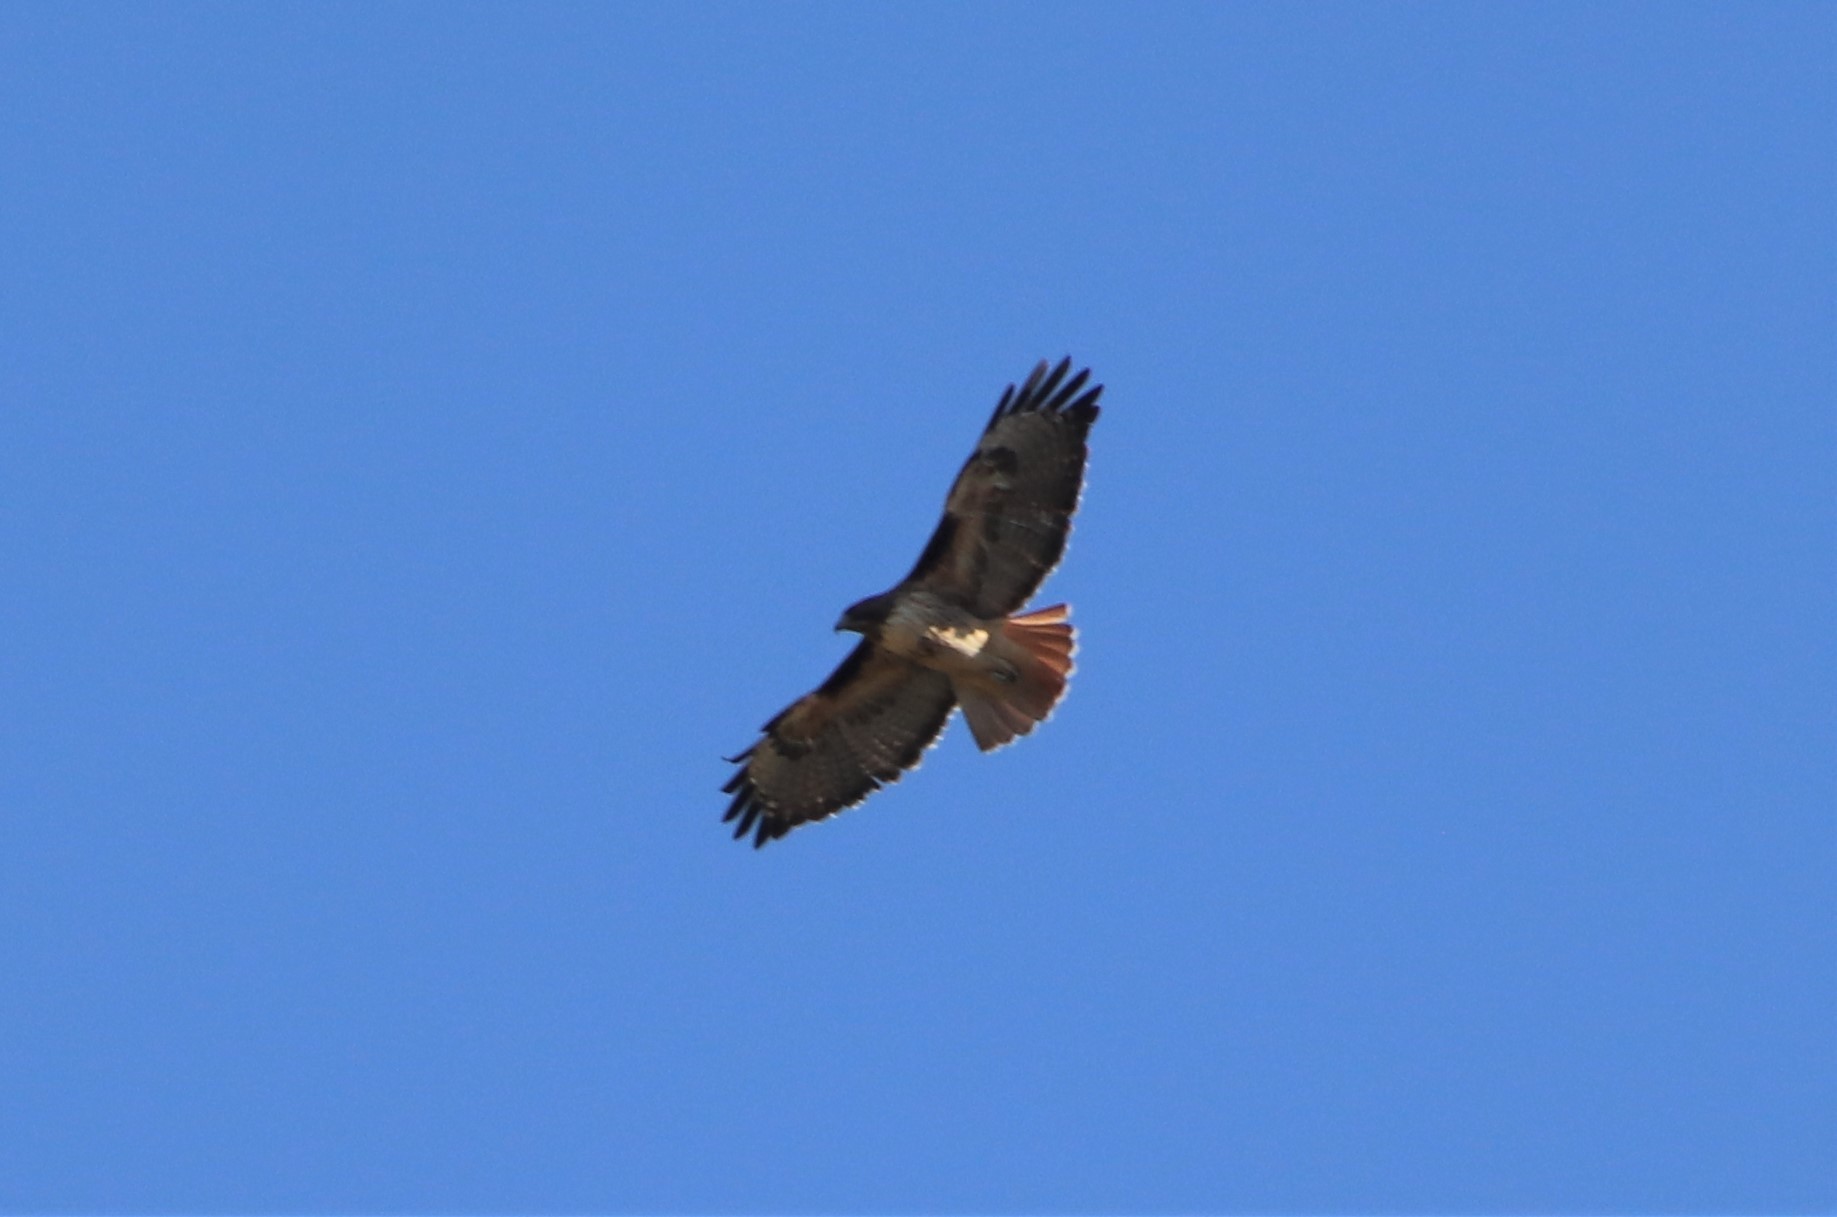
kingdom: Animalia
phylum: Chordata
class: Aves
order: Accipitriformes
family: Accipitridae
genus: Buteo
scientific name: Buteo jamaicensis
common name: Red-tailed hawk
